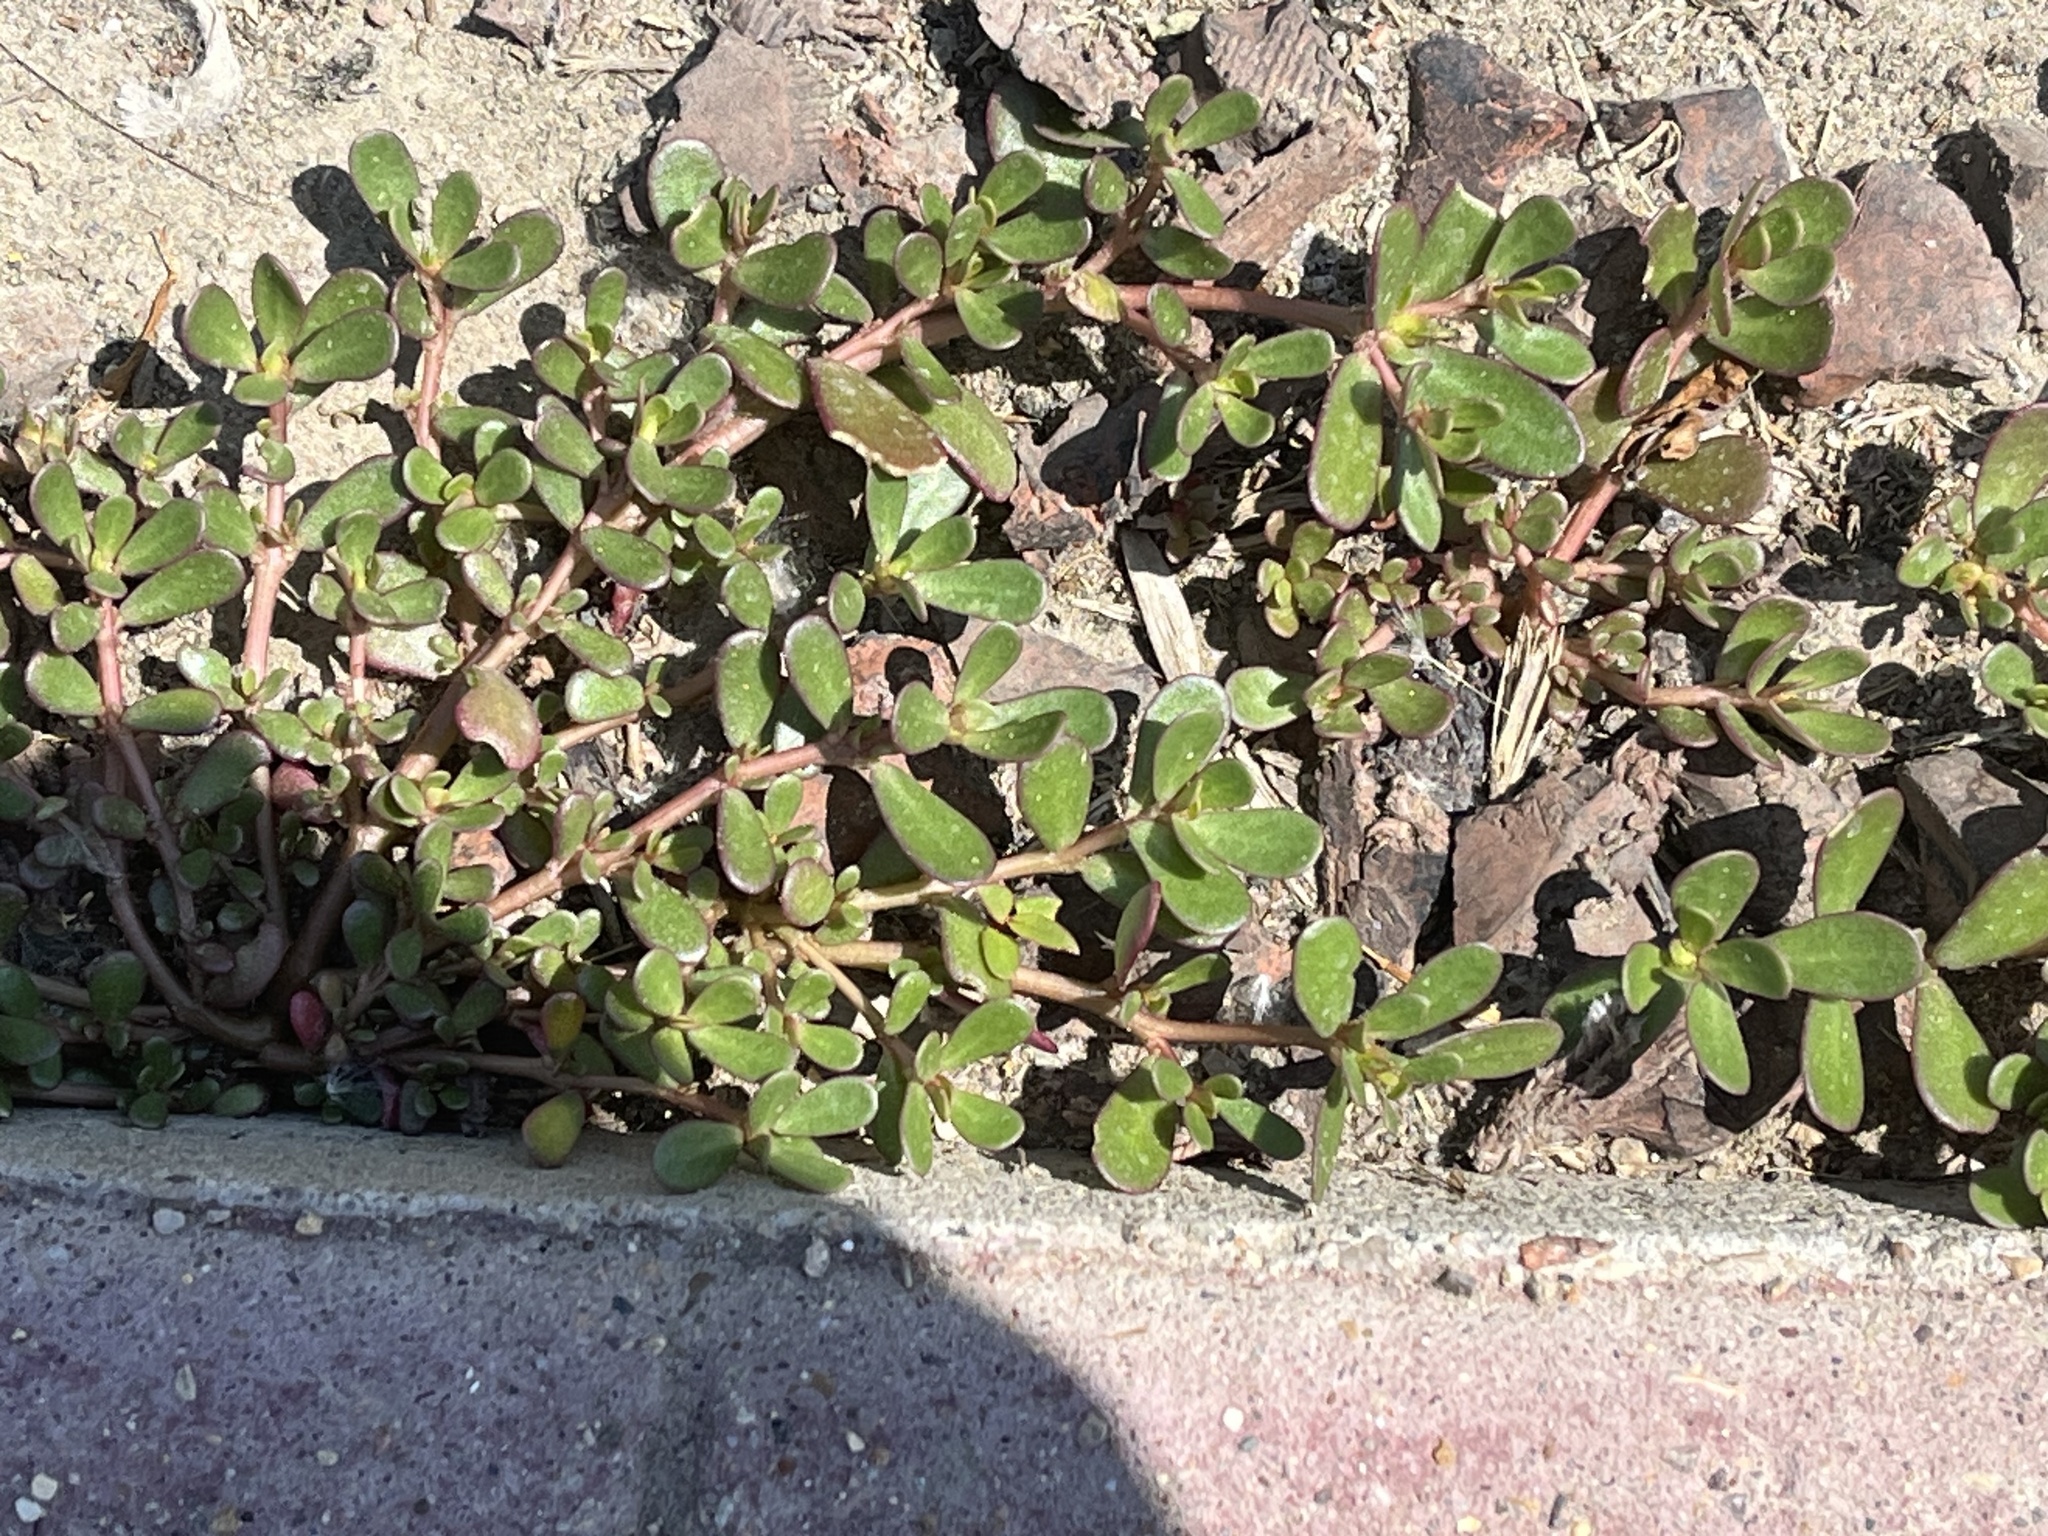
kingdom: Plantae
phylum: Tracheophyta
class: Magnoliopsida
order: Caryophyllales
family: Portulacaceae
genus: Portulaca
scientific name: Portulaca oleracea
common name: Common purslane
